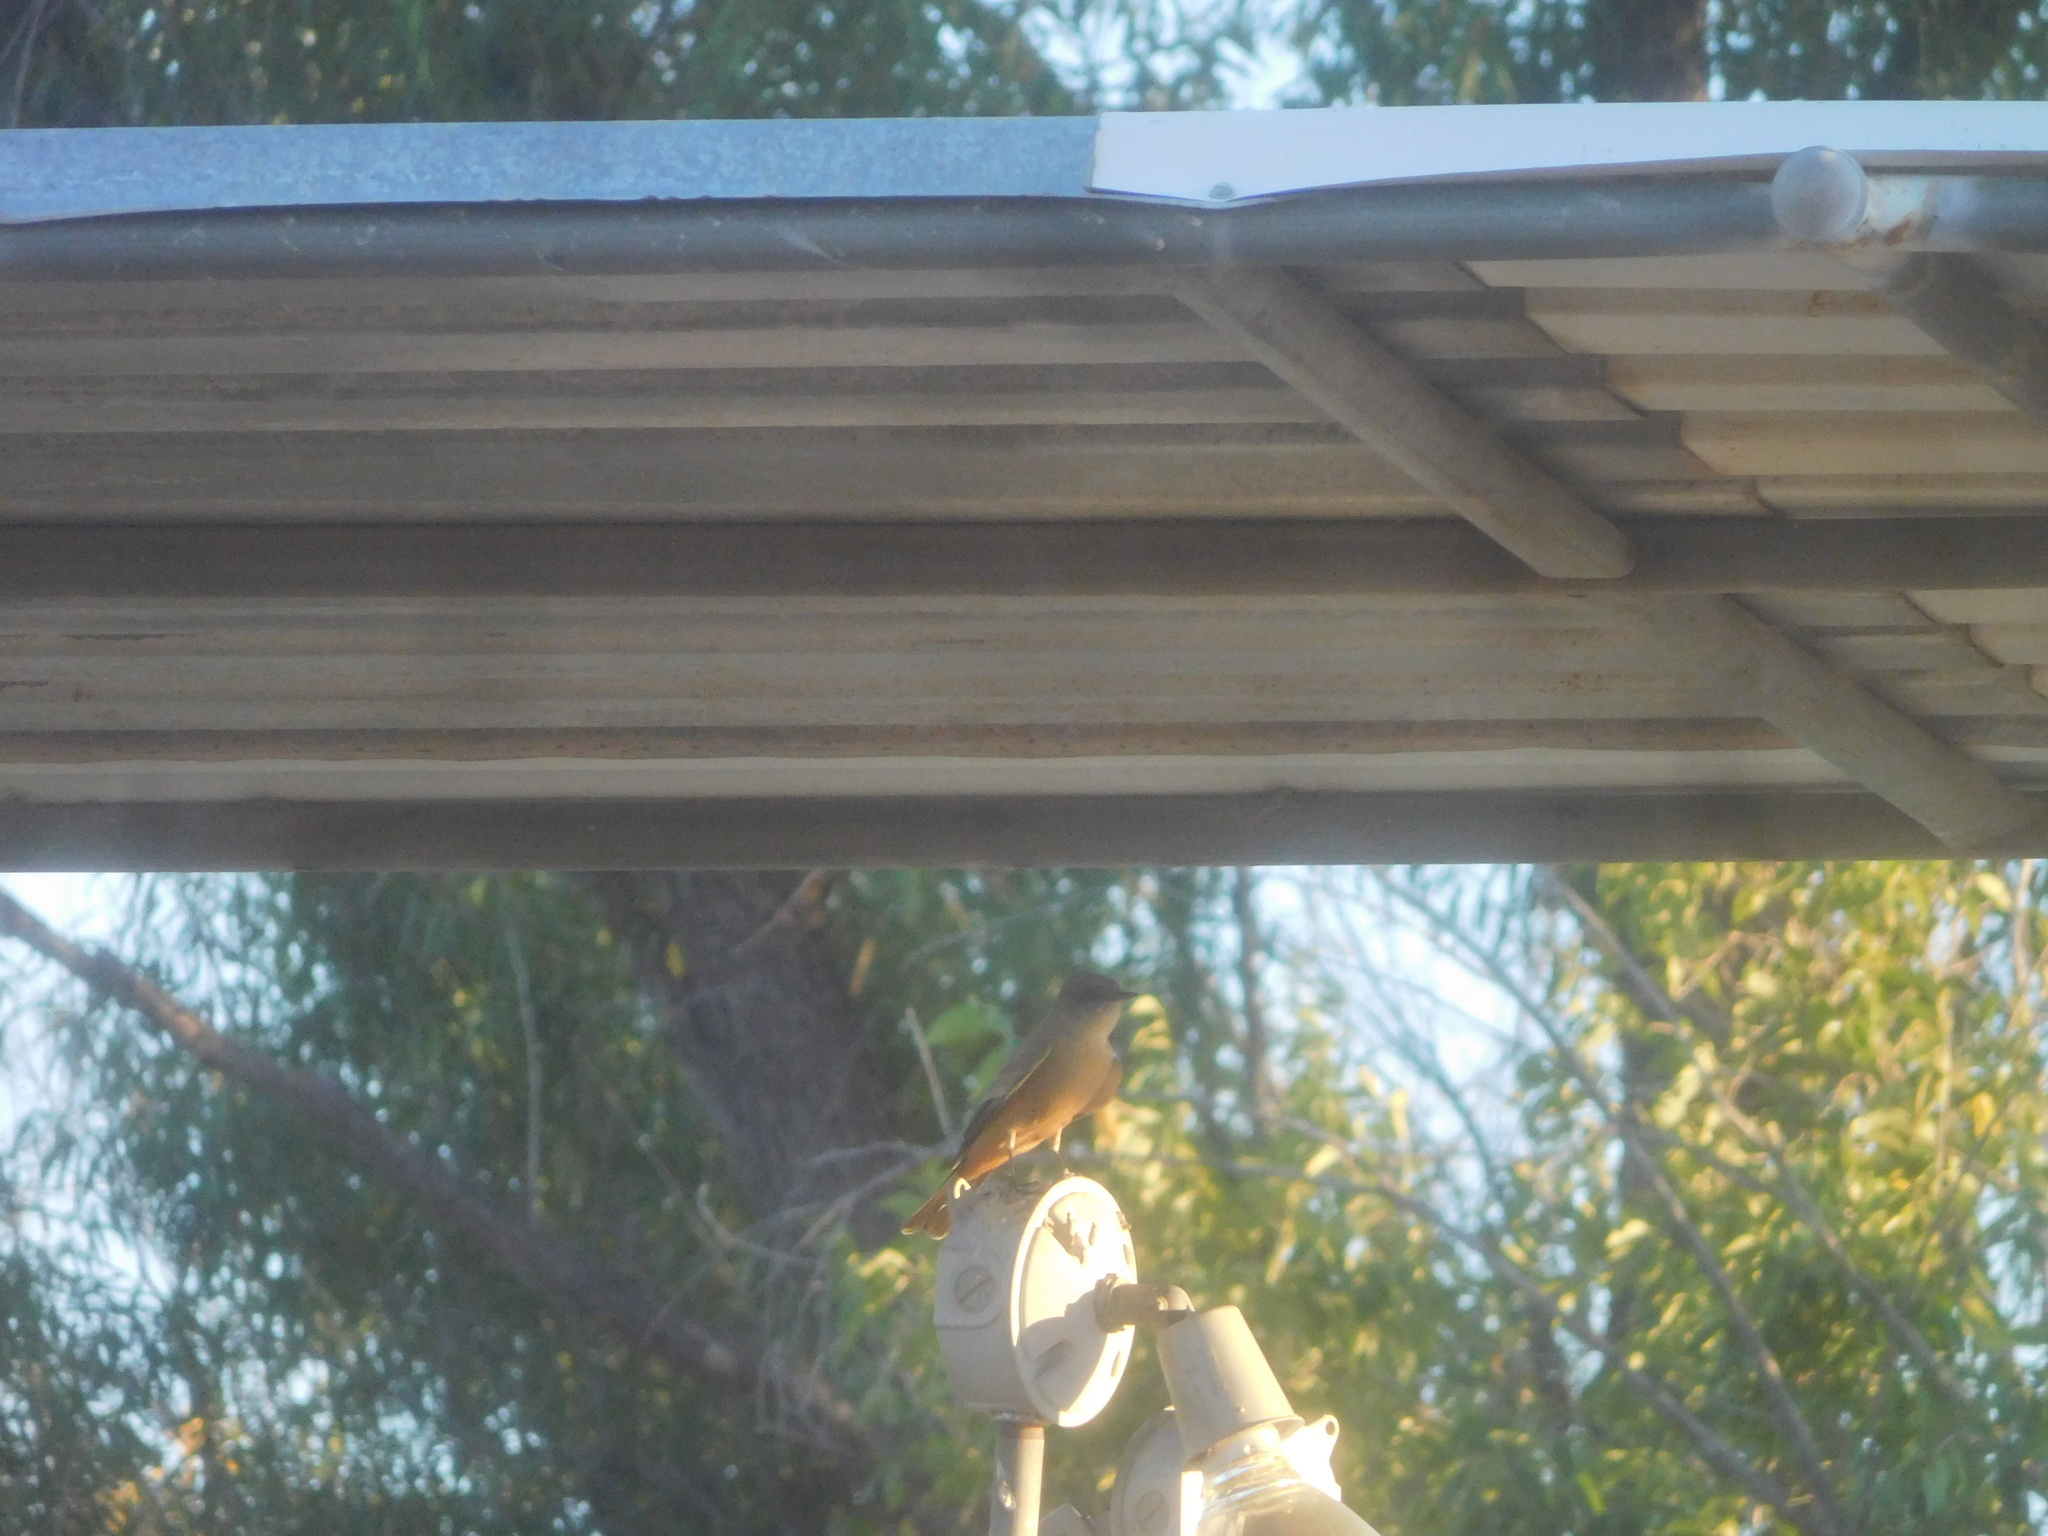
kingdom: Animalia
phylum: Chordata
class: Aves
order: Passeriformes
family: Tyrannidae
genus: Sayornis
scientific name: Sayornis saya
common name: Say's phoebe
